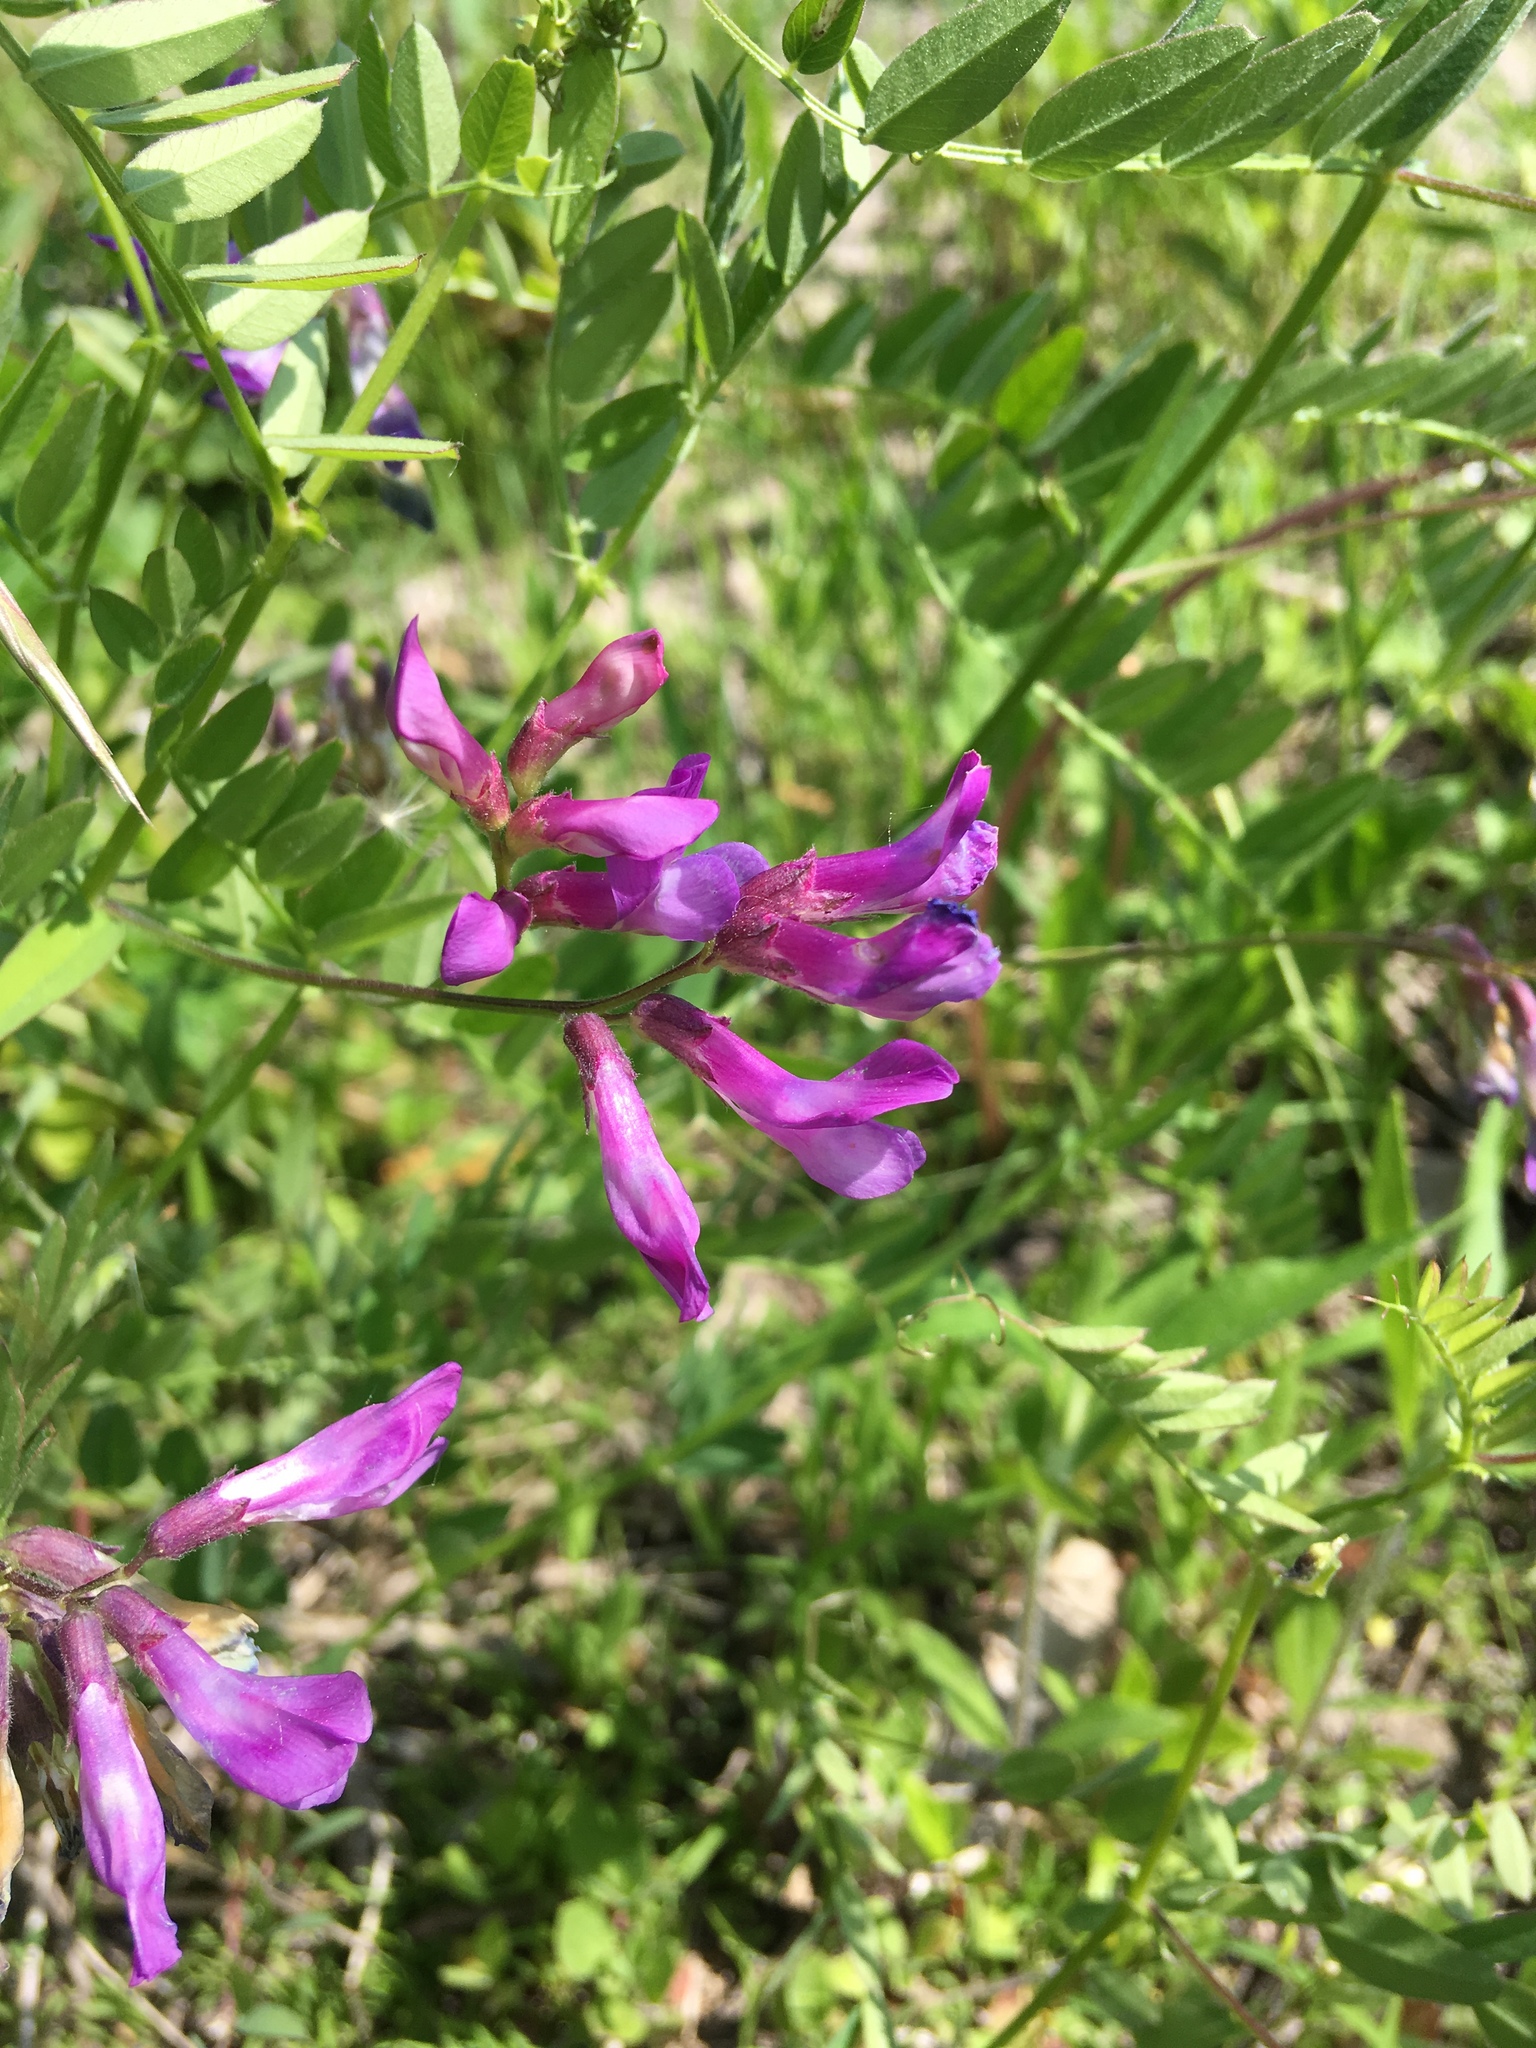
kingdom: Plantae
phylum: Tracheophyta
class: Magnoliopsida
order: Fabales
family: Fabaceae
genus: Vicia
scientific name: Vicia americana
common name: American vetch
